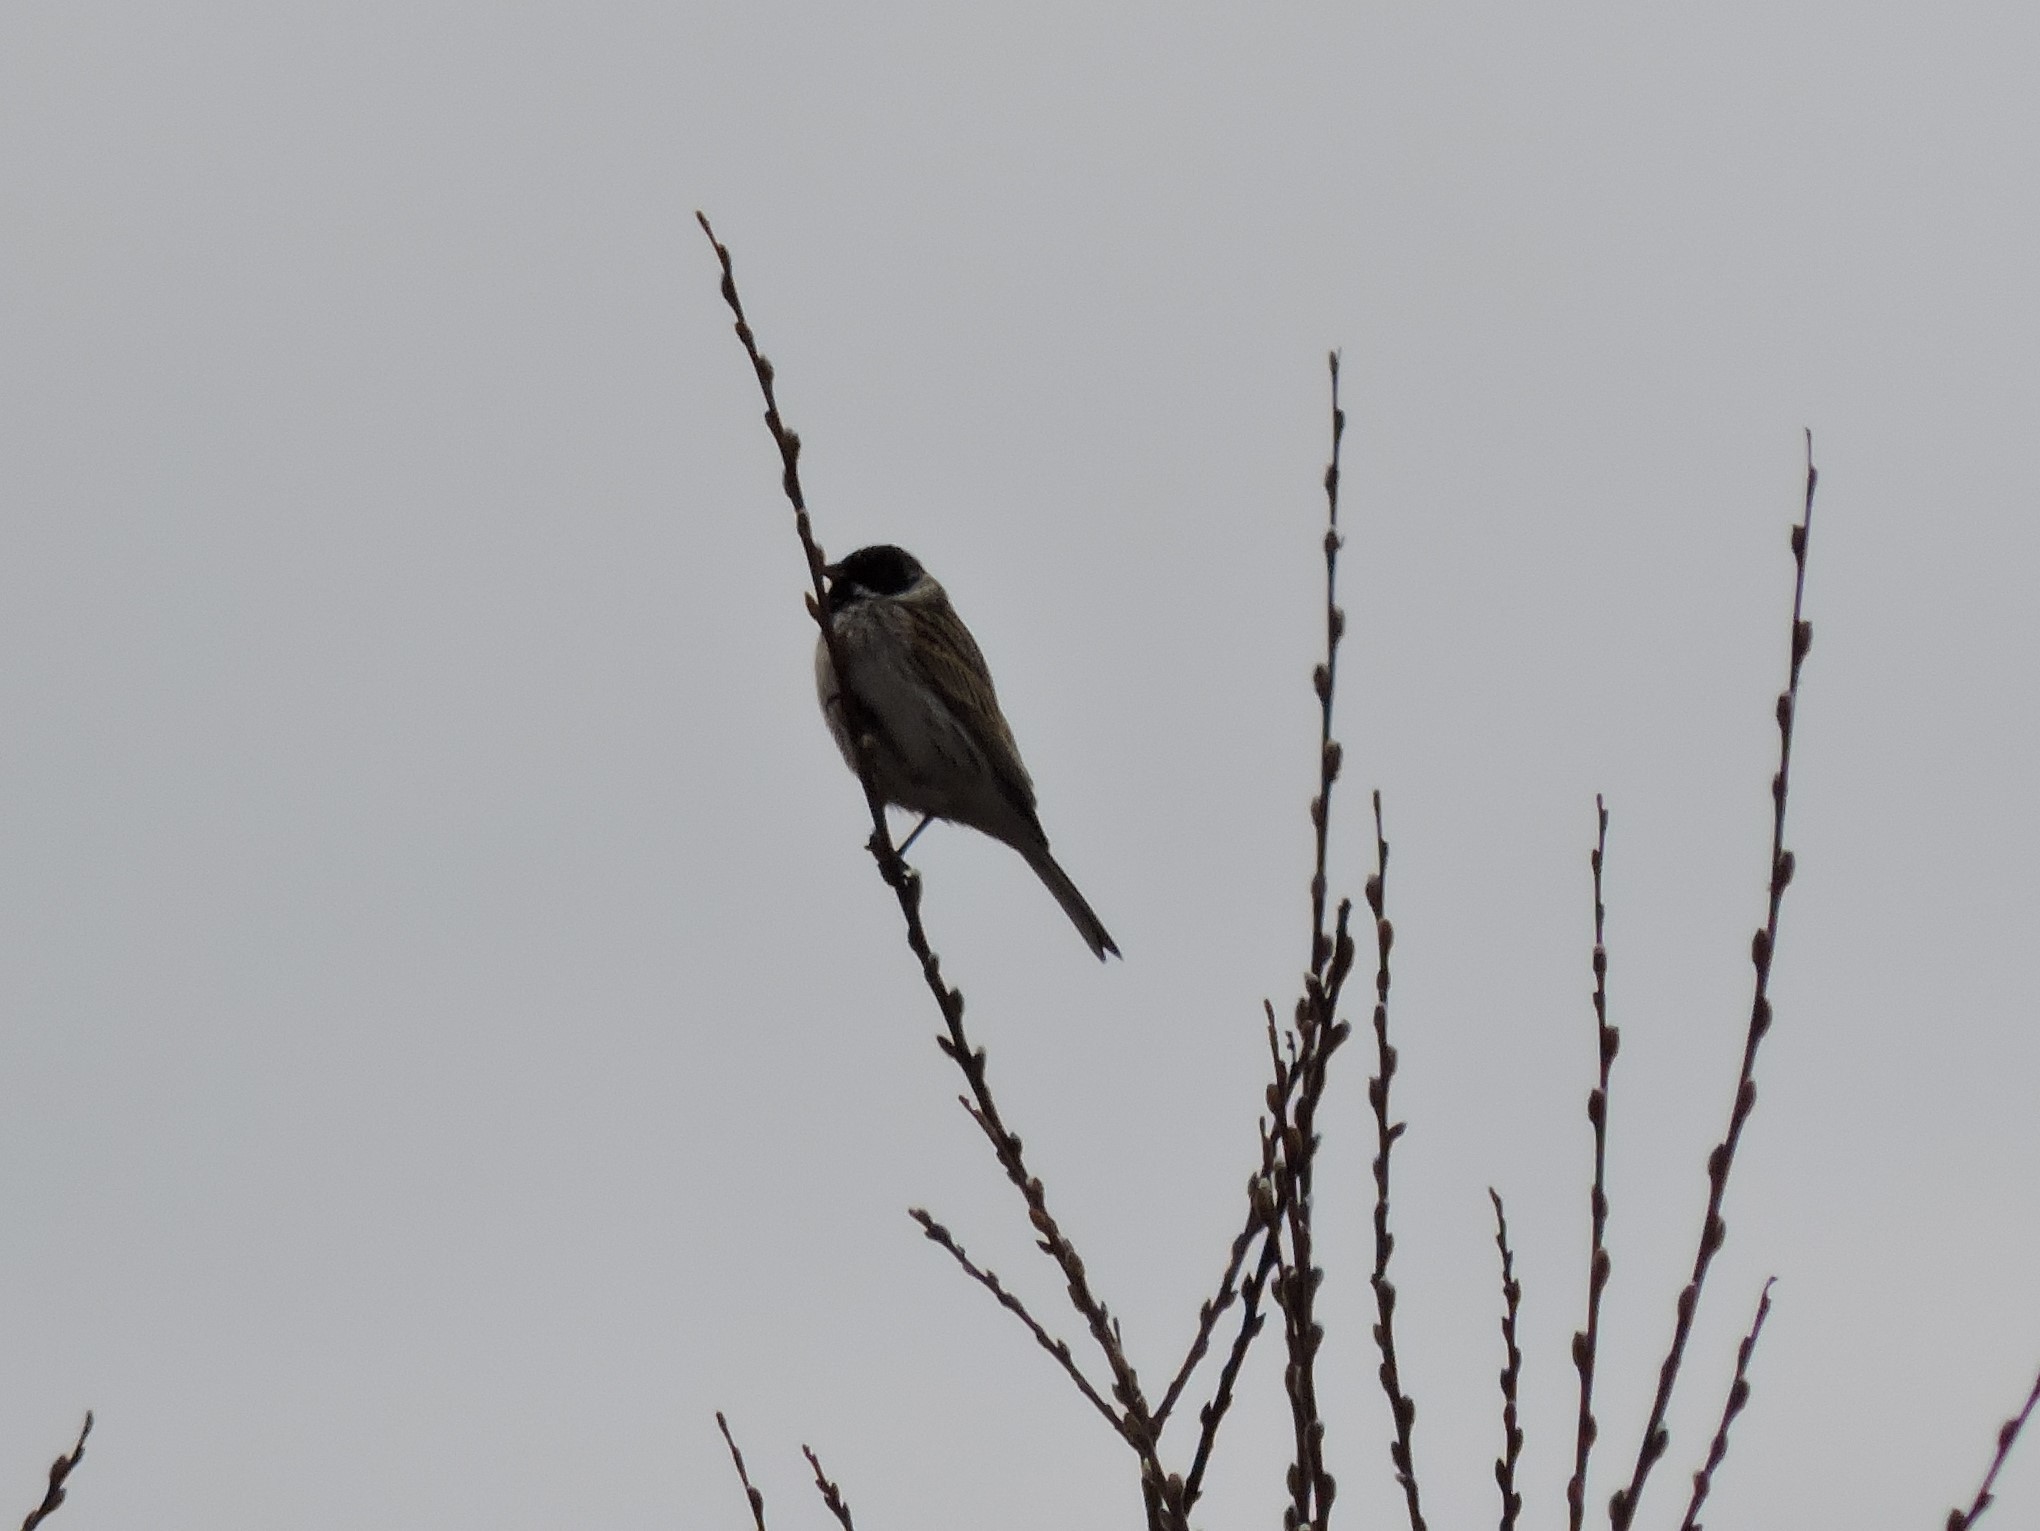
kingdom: Animalia
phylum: Chordata
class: Aves
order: Passeriformes
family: Emberizidae
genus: Emberiza
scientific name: Emberiza schoeniclus
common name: Reed bunting
